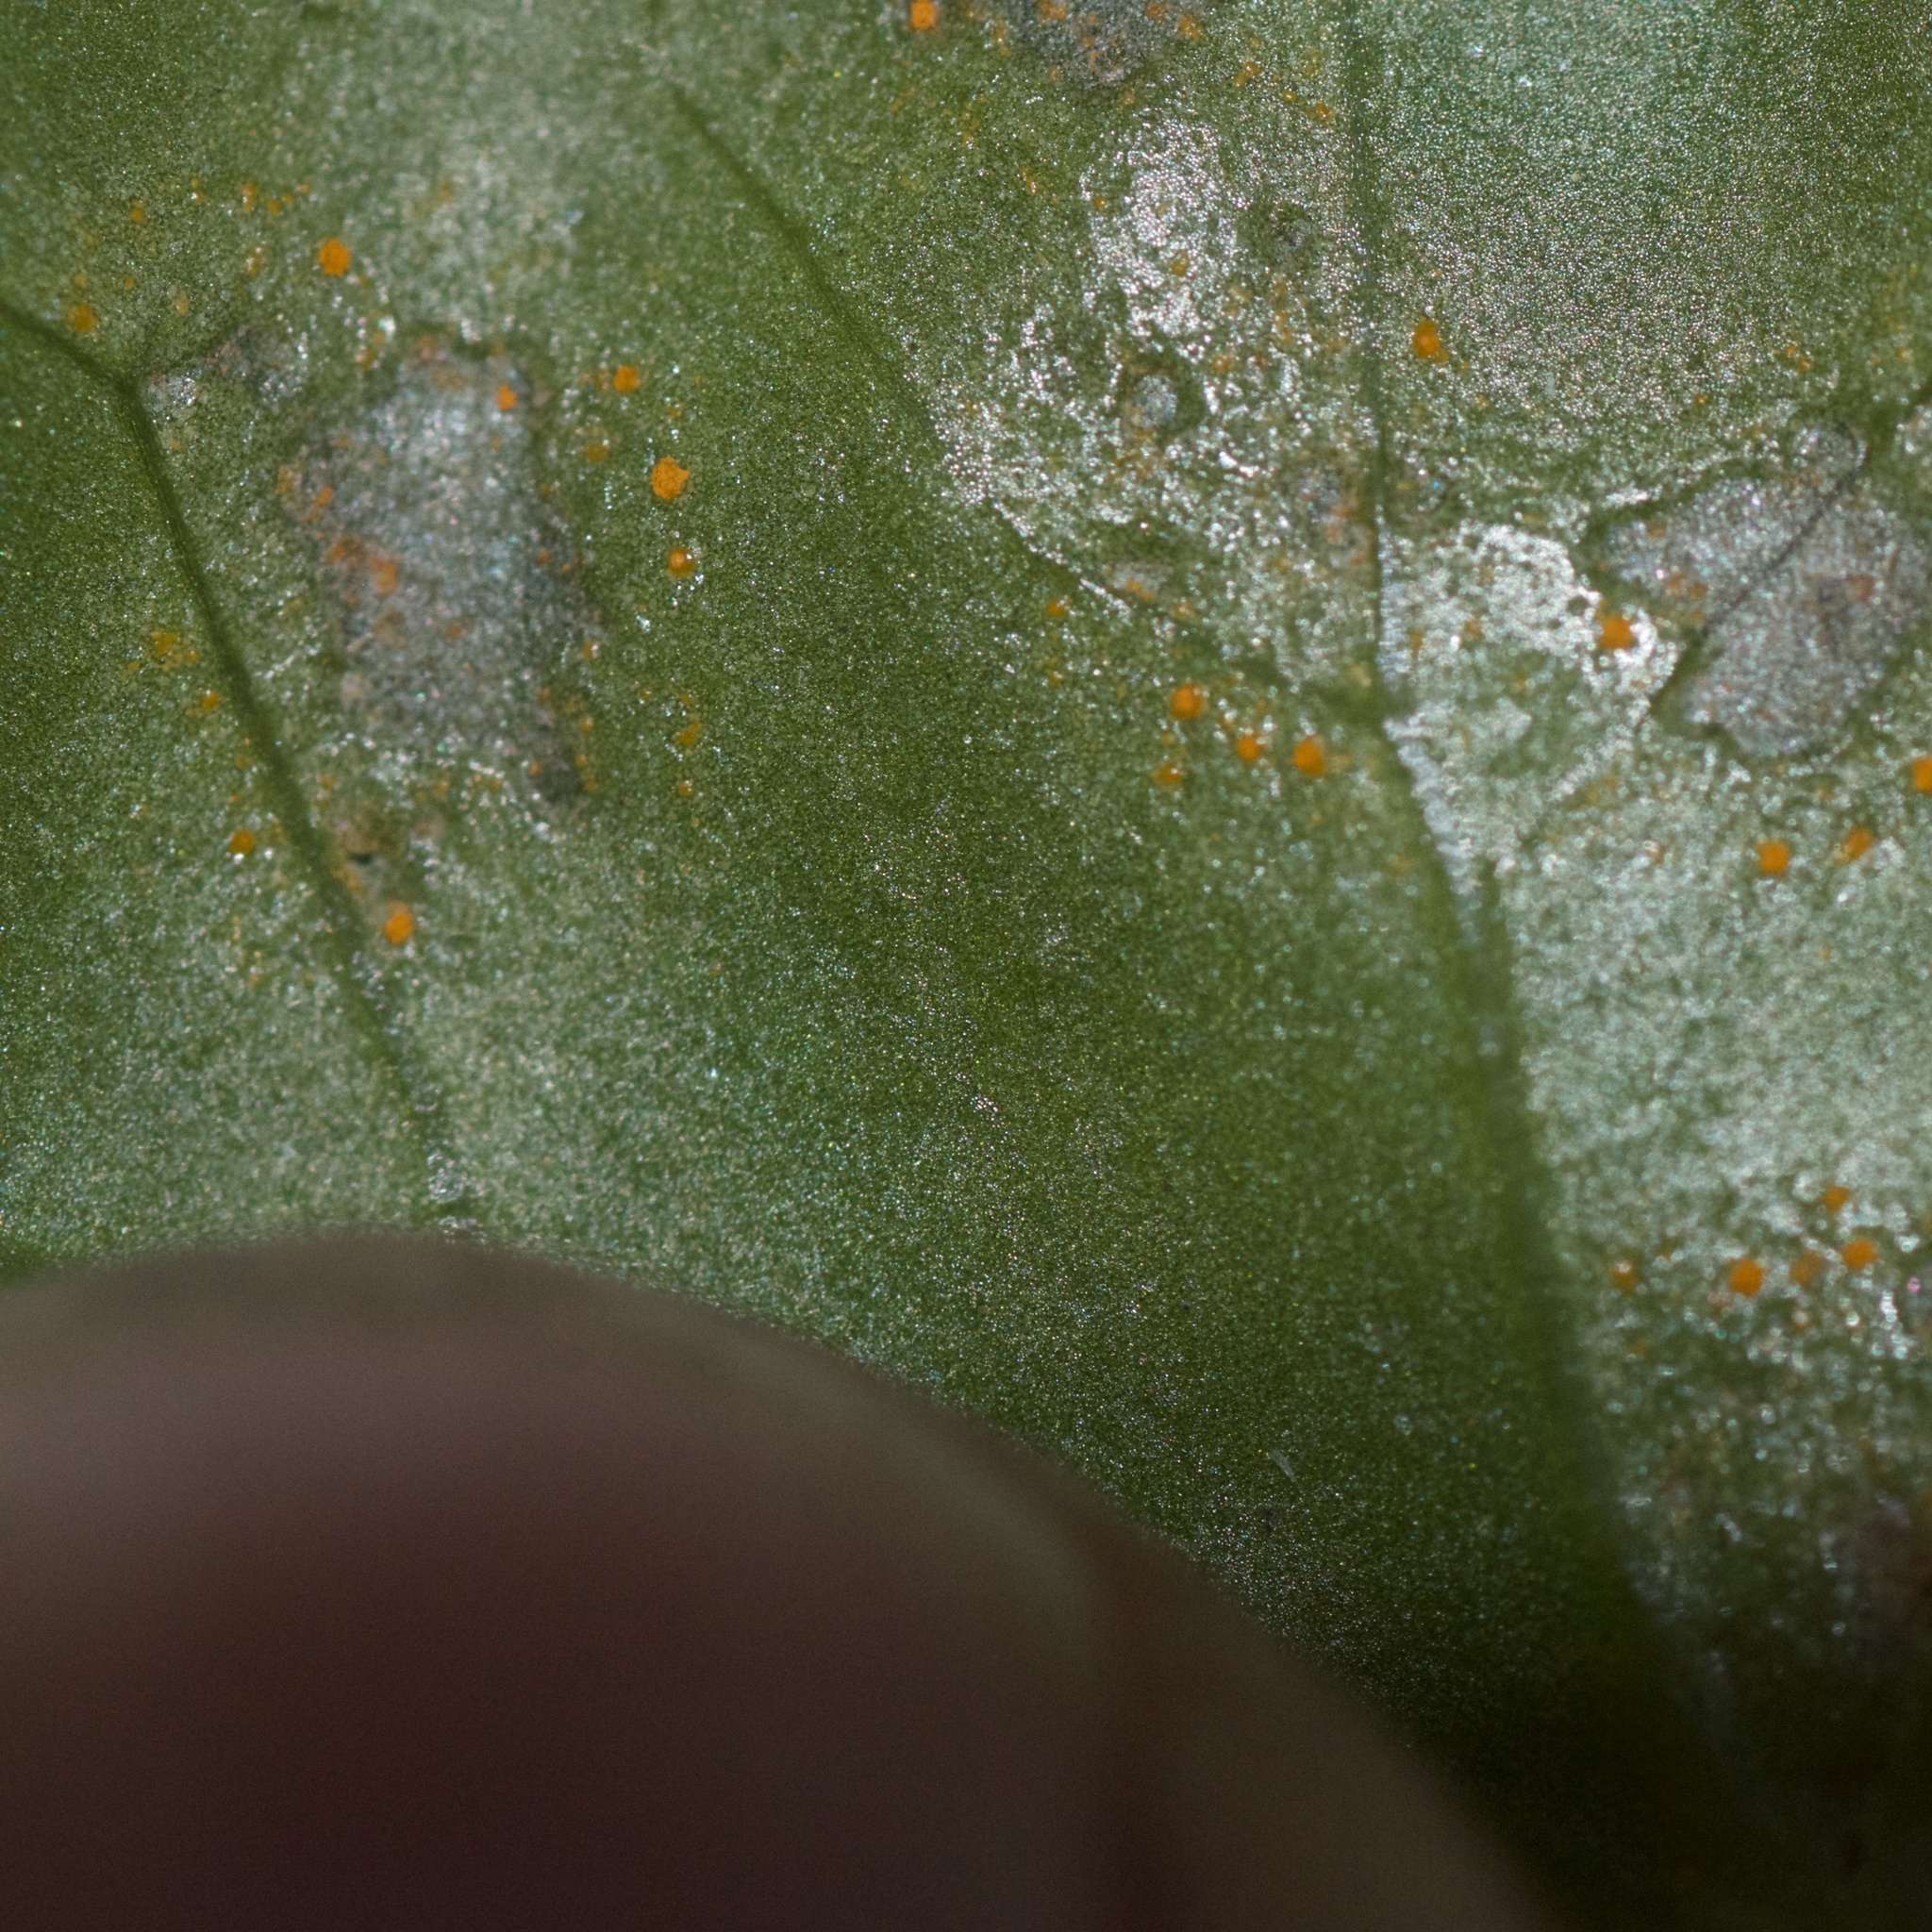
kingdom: Fungi
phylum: Basidiomycota
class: Pucciniomycetes
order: Pucciniales
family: Coleosporiaceae
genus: Coleosporium
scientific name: Coleosporium tussilaginis
